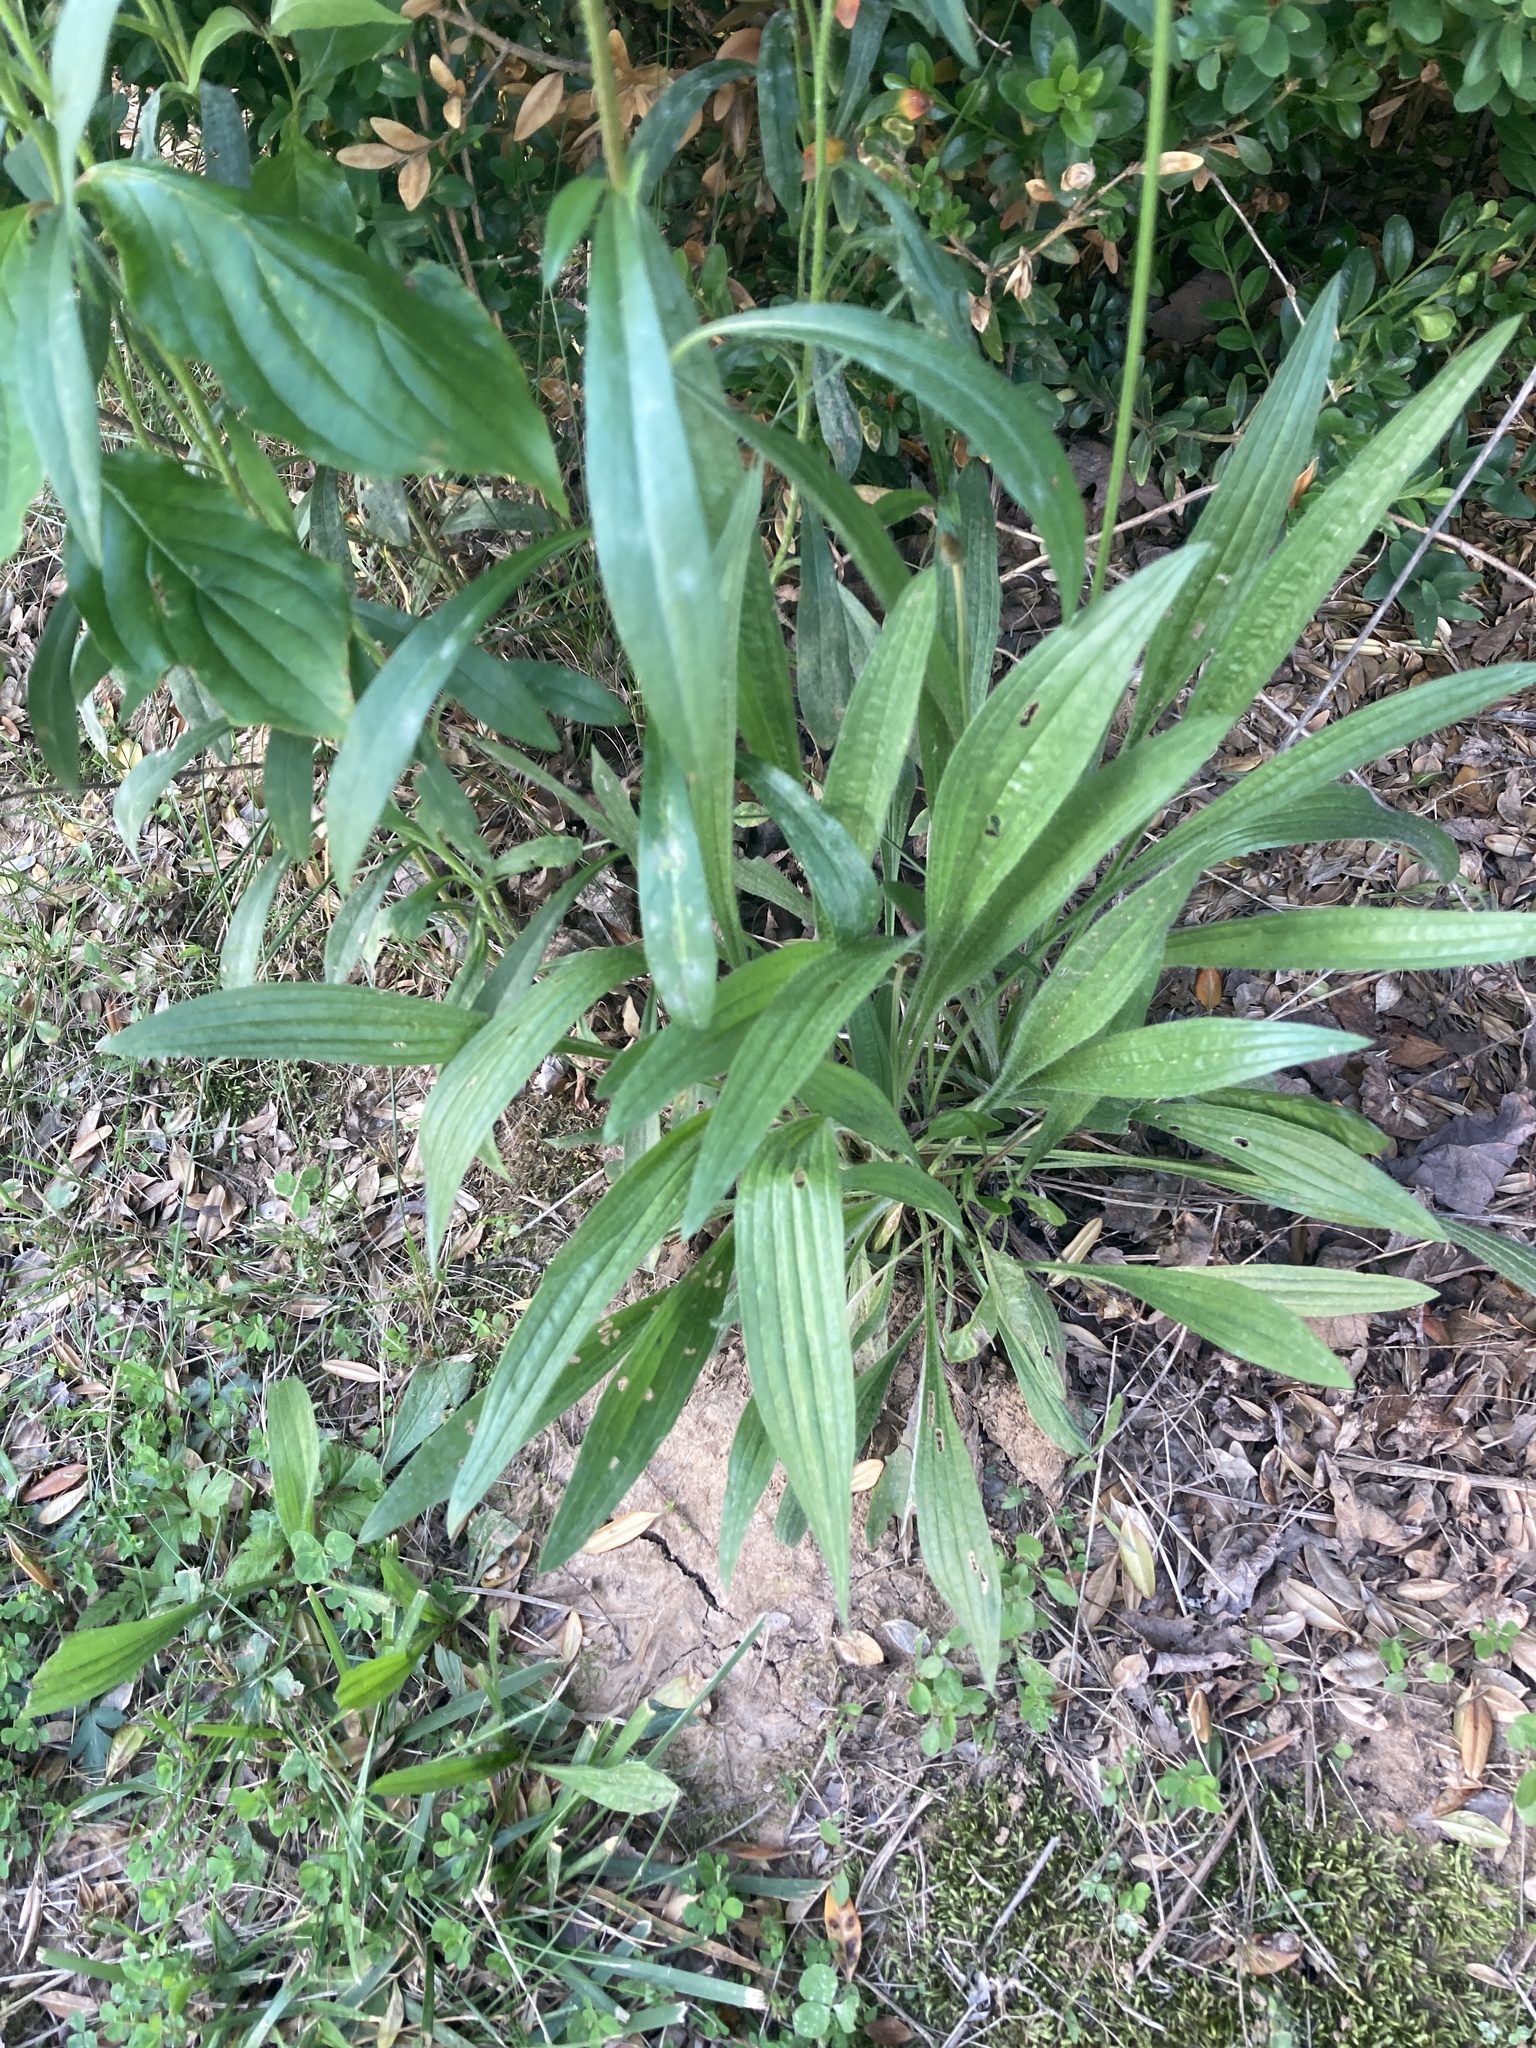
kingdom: Plantae
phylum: Tracheophyta
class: Magnoliopsida
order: Lamiales
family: Plantaginaceae
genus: Plantago
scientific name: Plantago lanceolata
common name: Ribwort plantain
